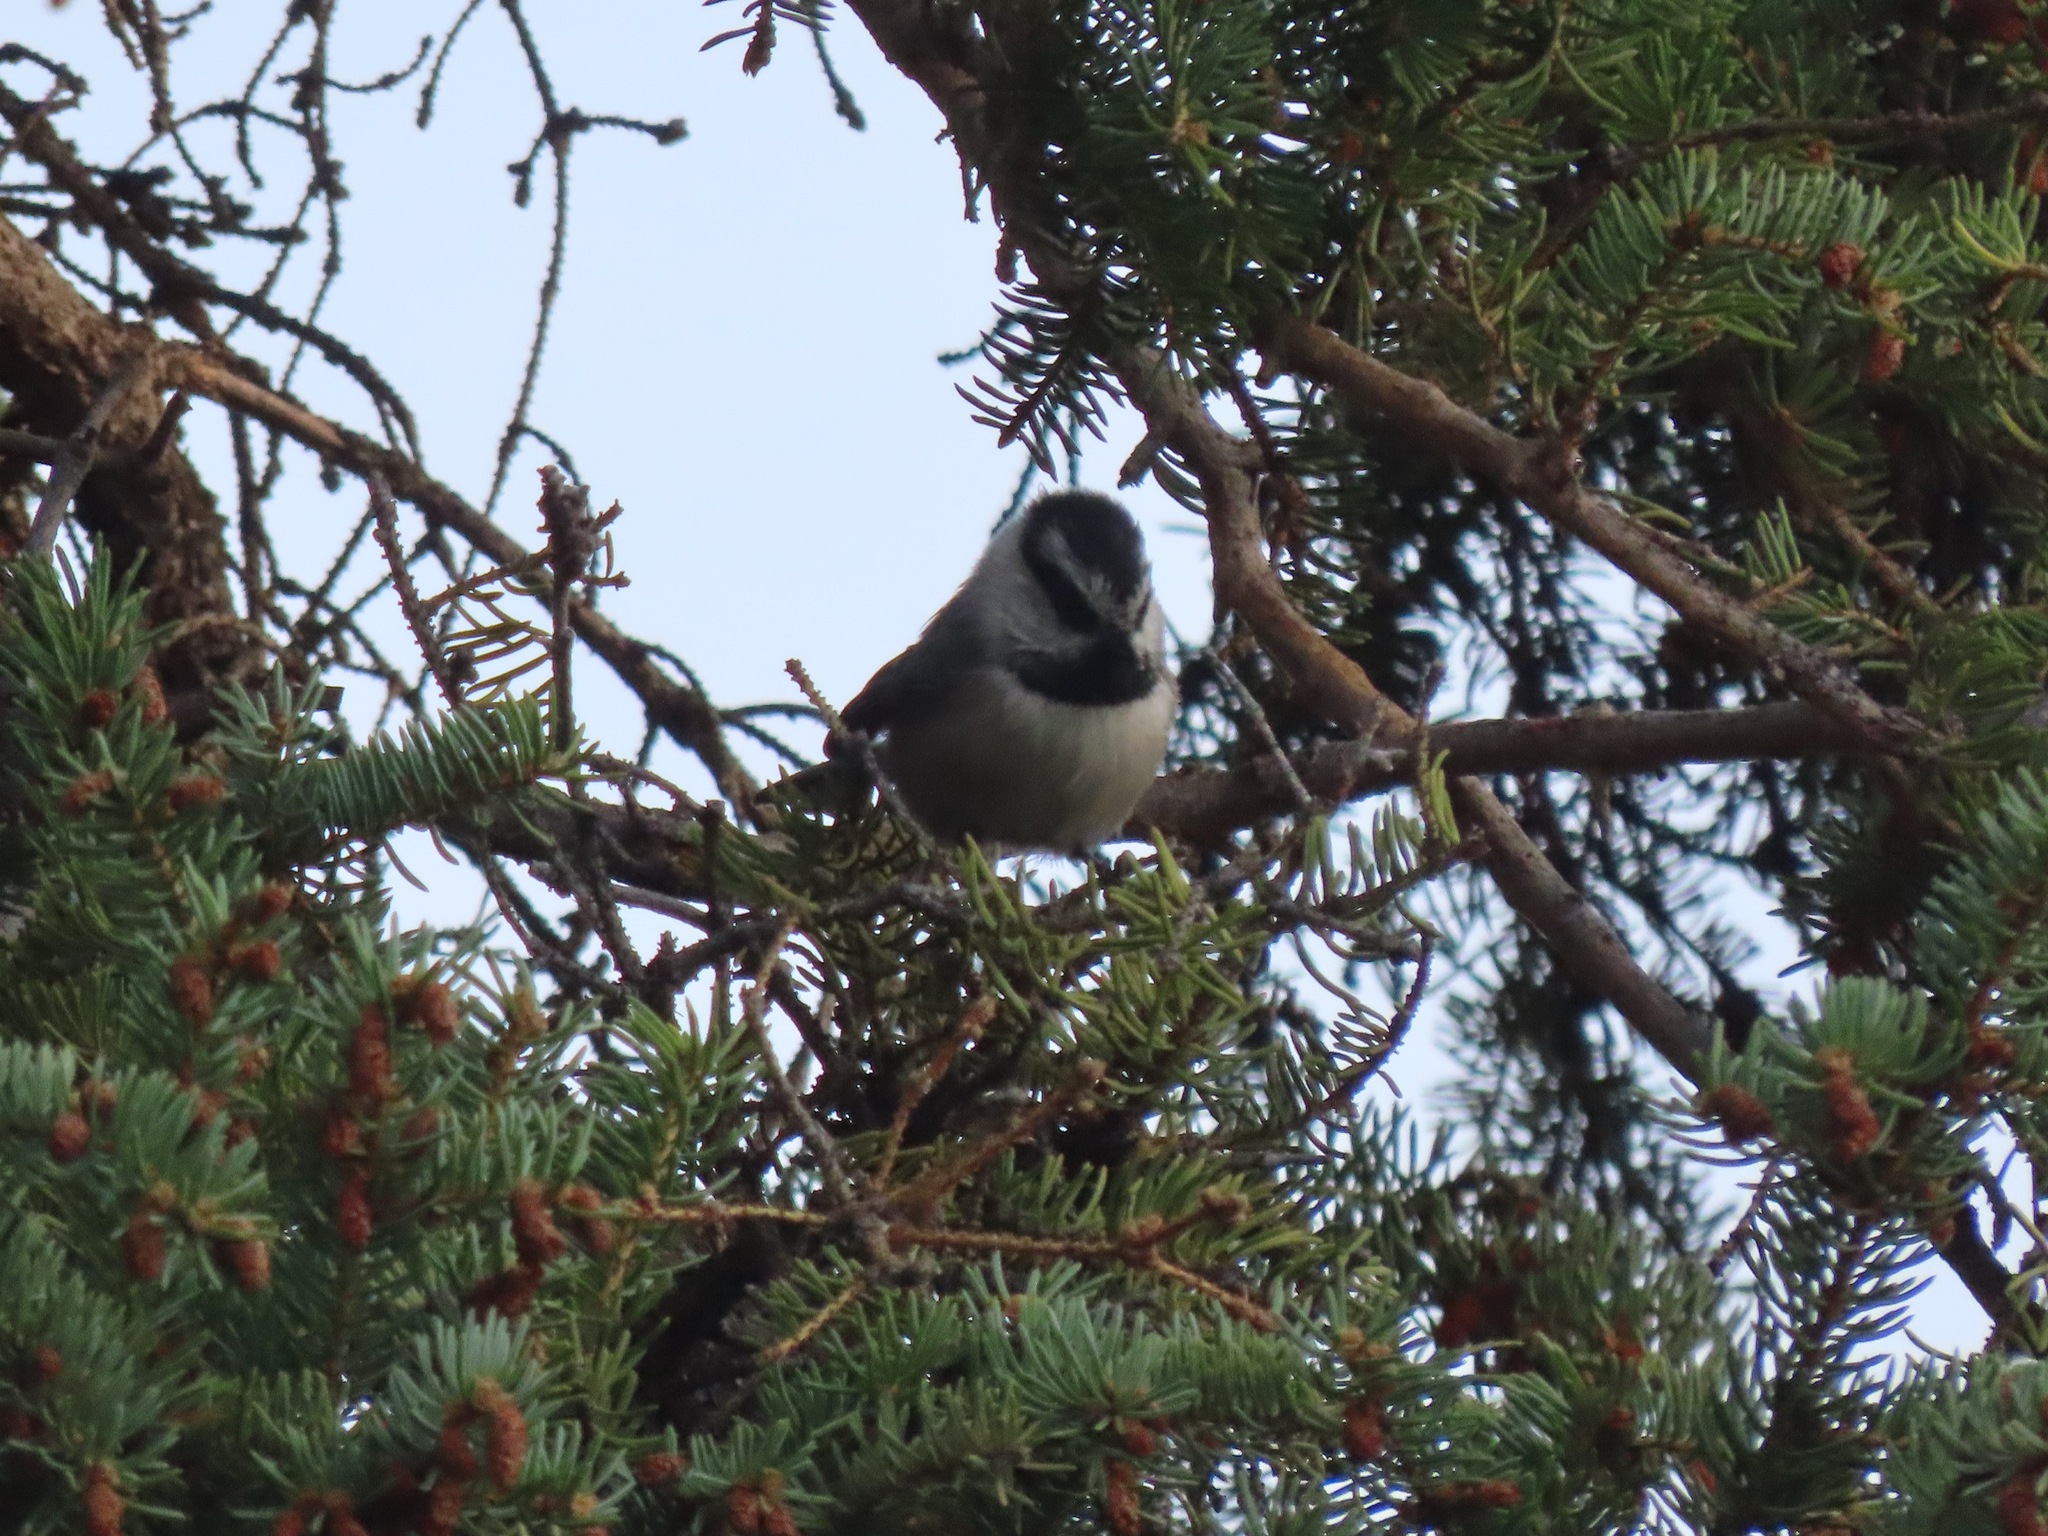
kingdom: Animalia
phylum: Chordata
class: Aves
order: Passeriformes
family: Paridae
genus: Poecile
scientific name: Poecile gambeli
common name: Mountain chickadee
